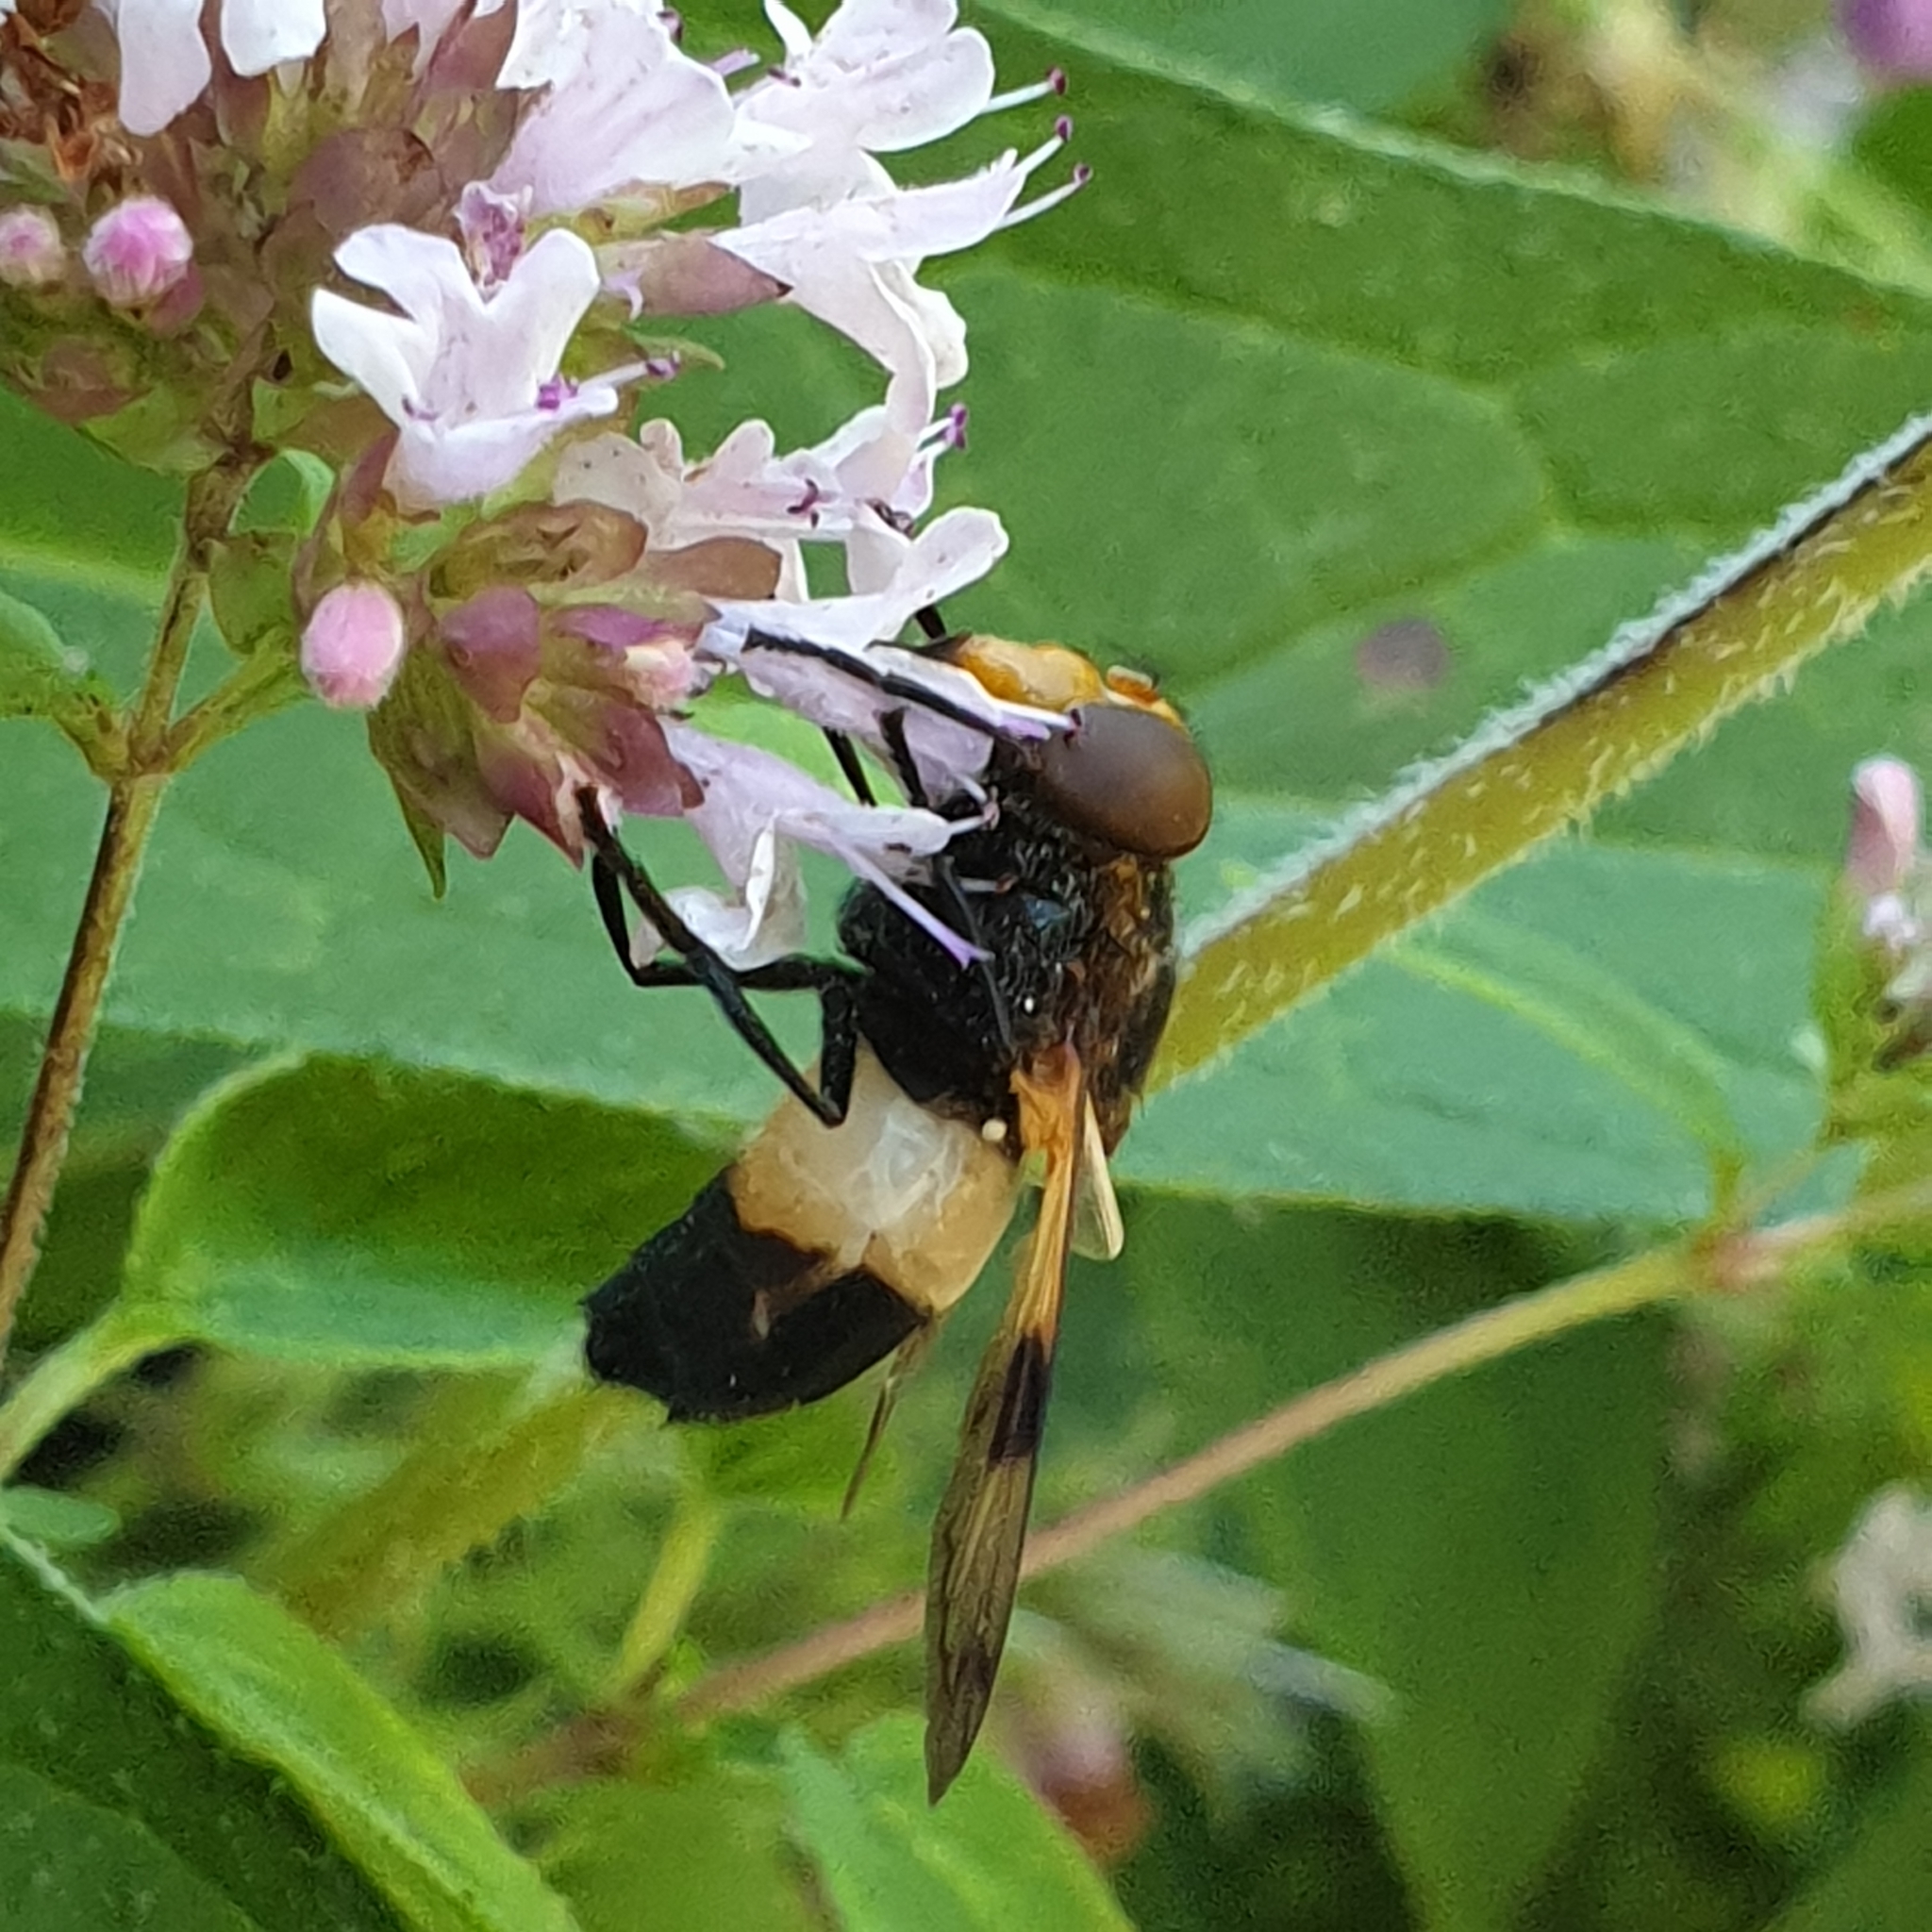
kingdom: Animalia
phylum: Arthropoda
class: Insecta
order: Diptera
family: Syrphidae
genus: Volucella
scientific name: Volucella pellucens
